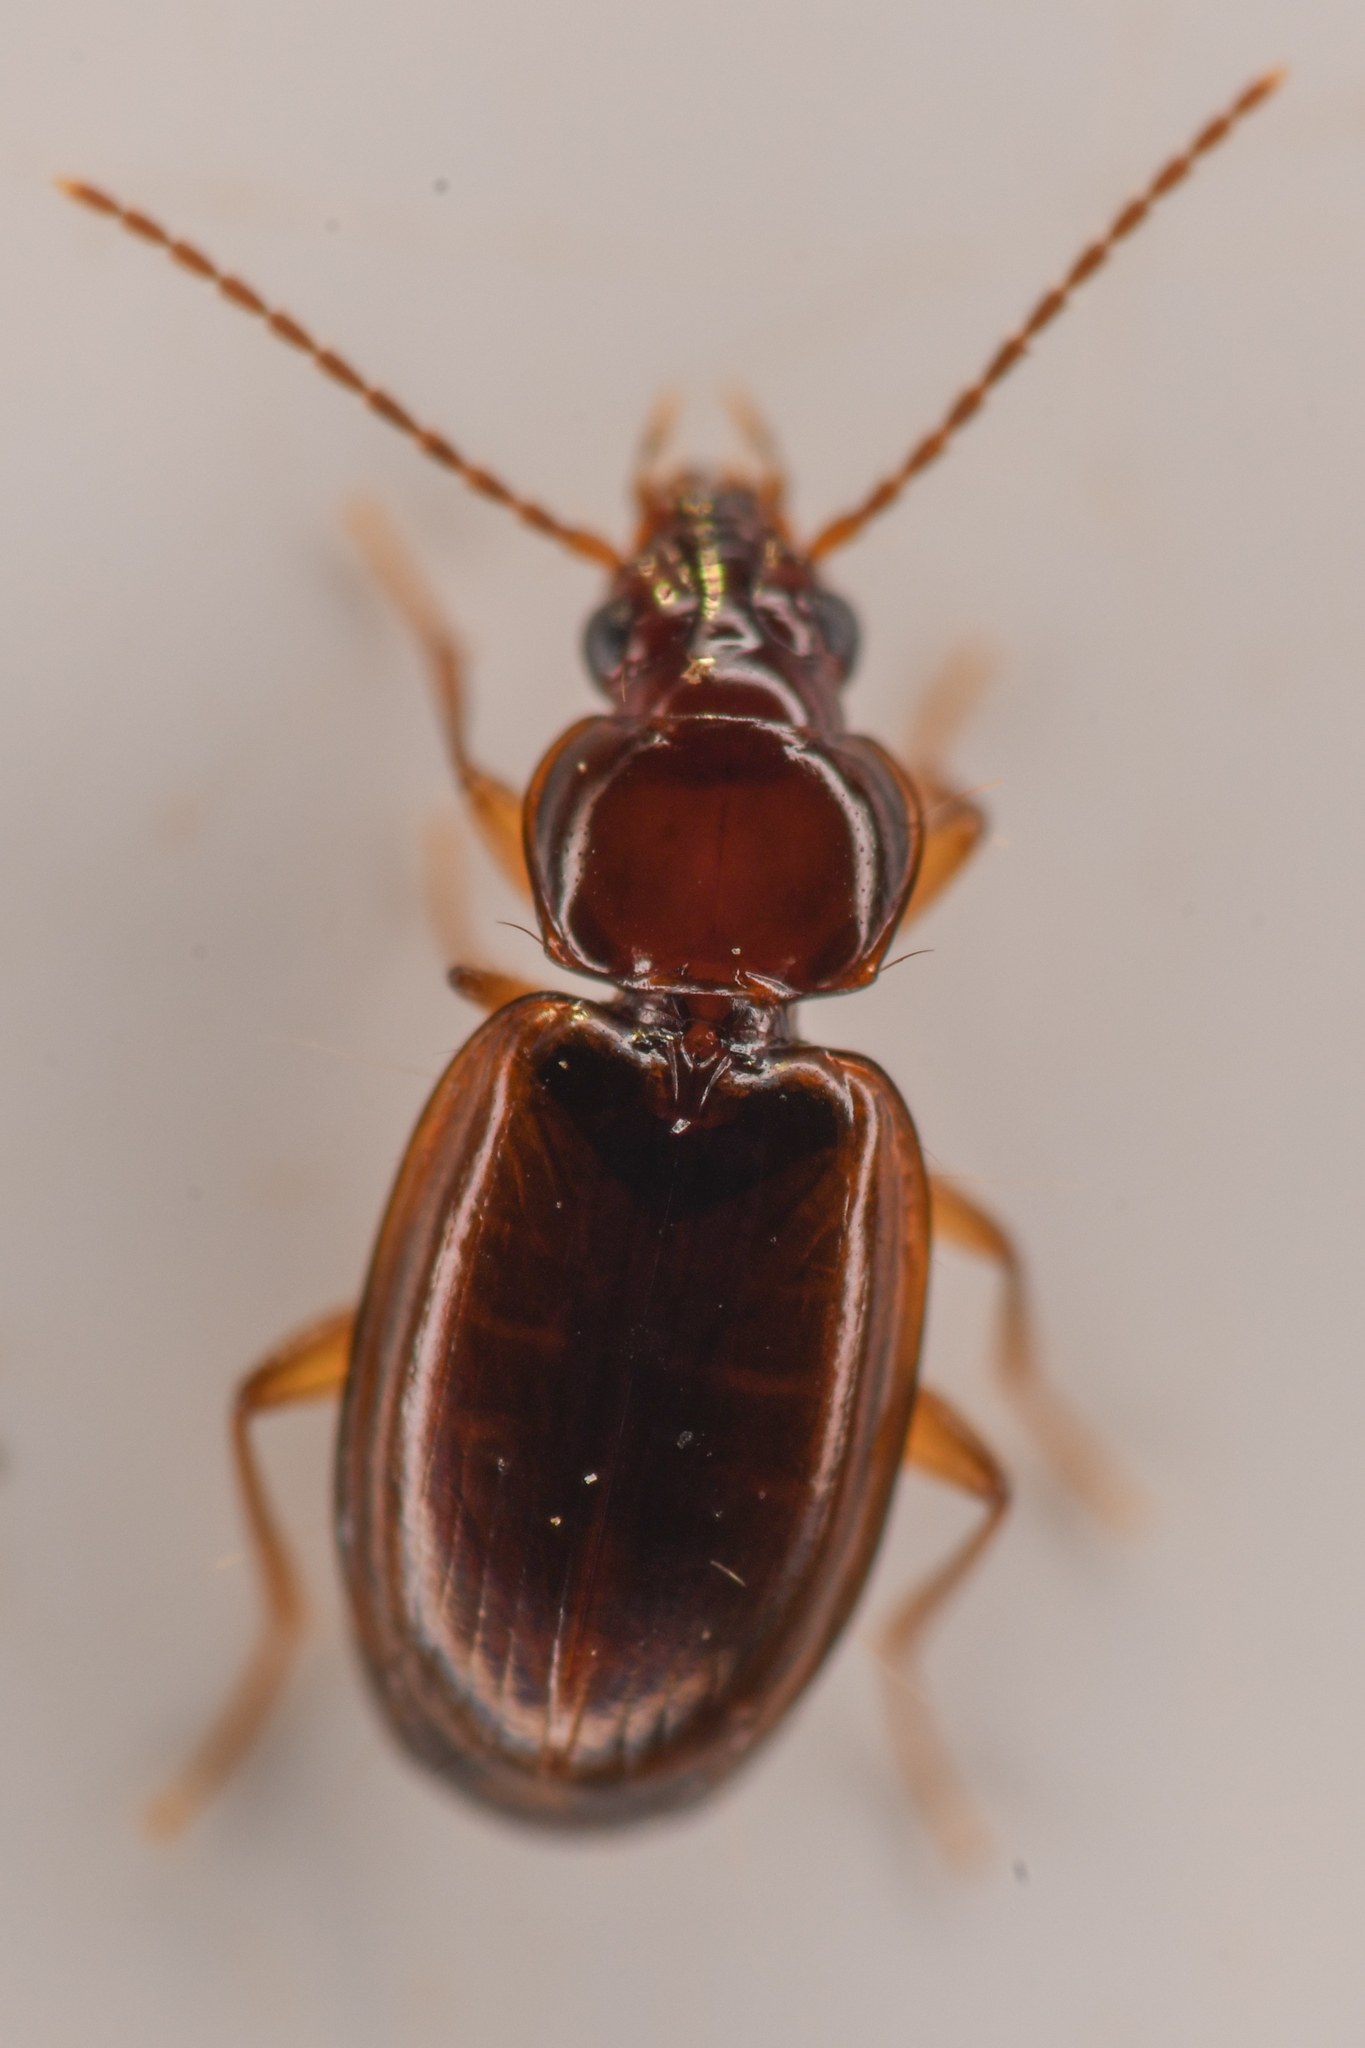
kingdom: Animalia
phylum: Arthropoda
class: Insecta
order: Coleoptera
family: Carabidae
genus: Trechus
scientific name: Trechus obtusus
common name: London riverbank ground beetle
